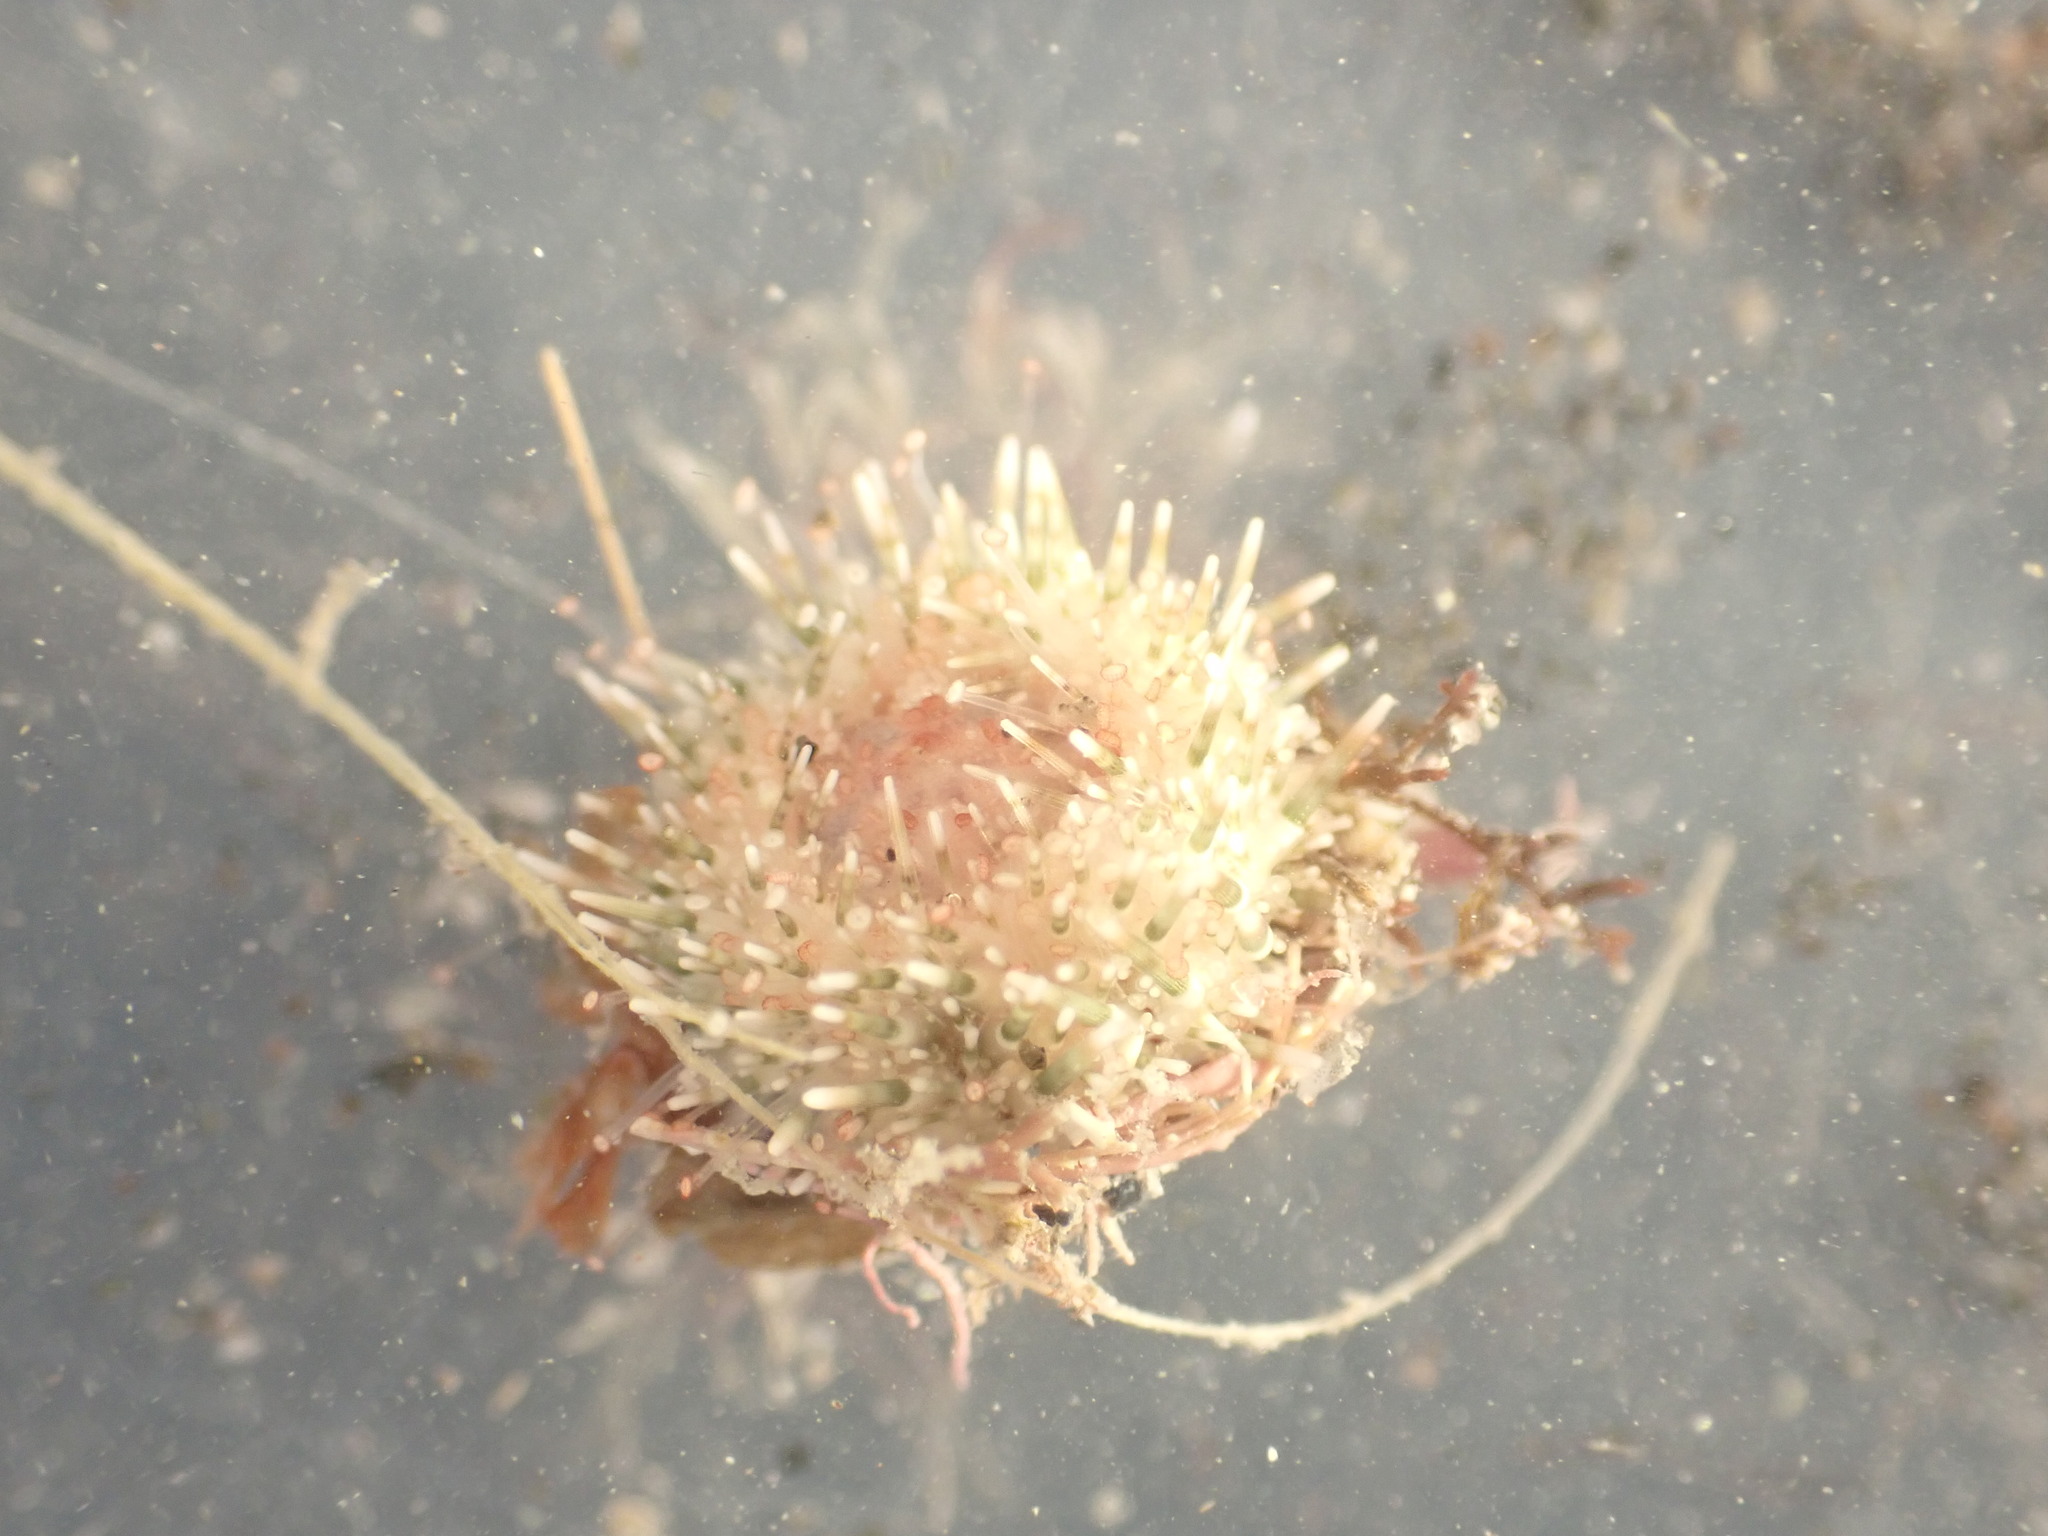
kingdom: Animalia
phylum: Echinodermata
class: Echinoidea
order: Camarodonta
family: Echinometridae
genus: Evechinus
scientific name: Evechinus chloroticus
